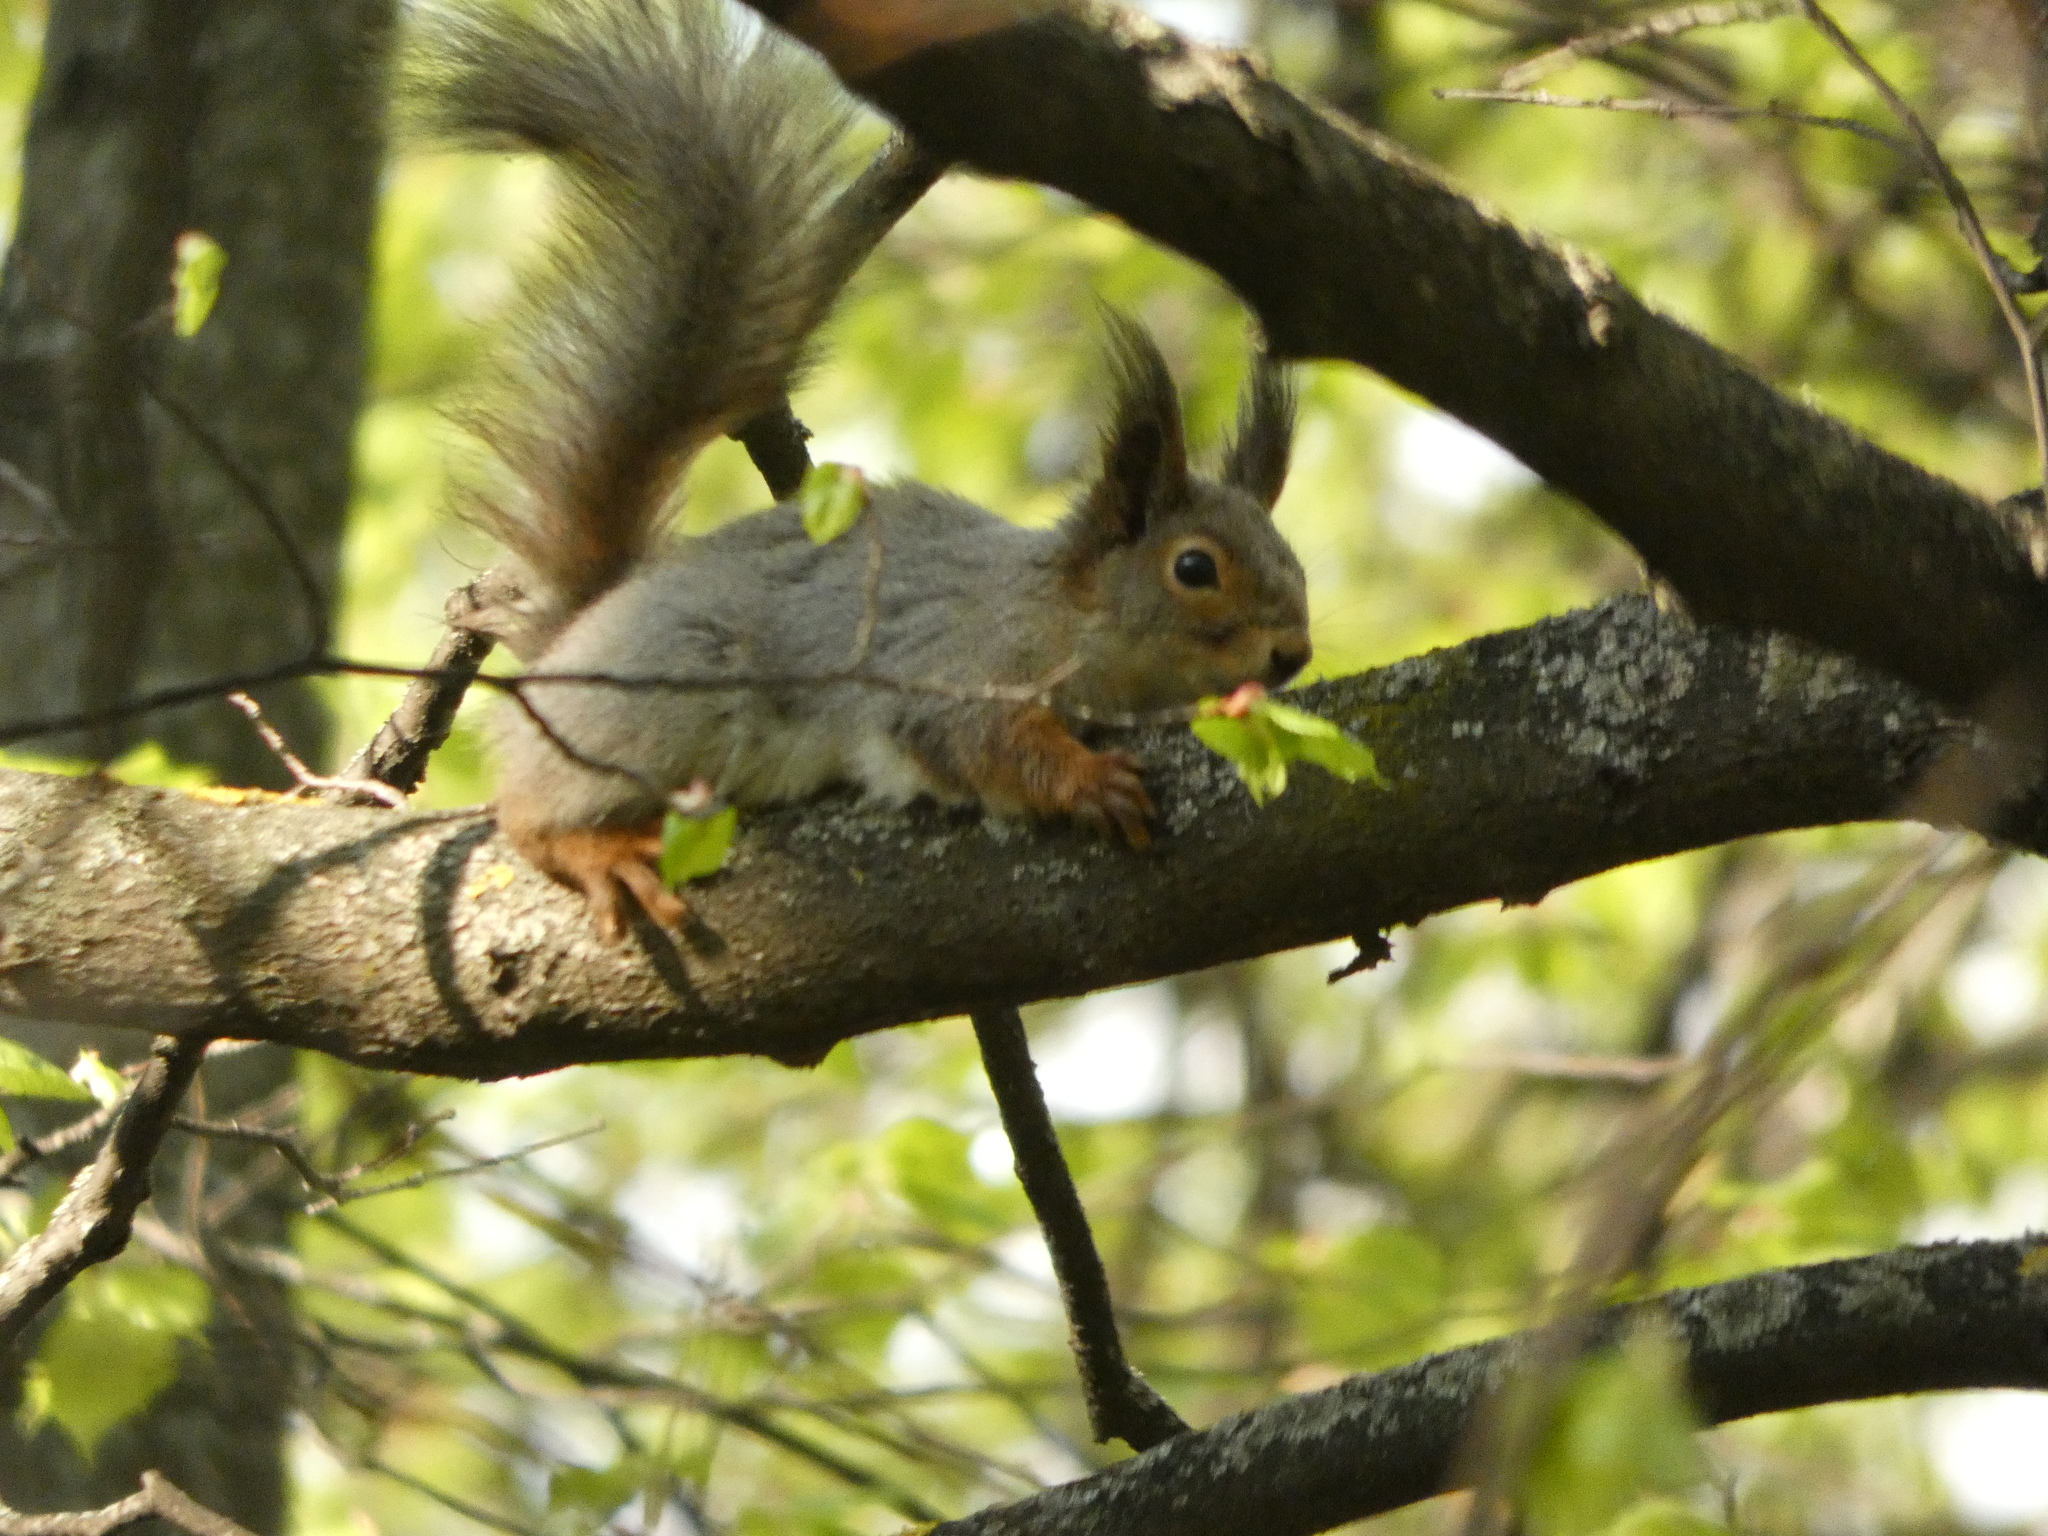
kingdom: Animalia
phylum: Chordata
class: Mammalia
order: Rodentia
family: Sciuridae
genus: Sciurus
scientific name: Sciurus vulgaris
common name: Eurasian red squirrel
